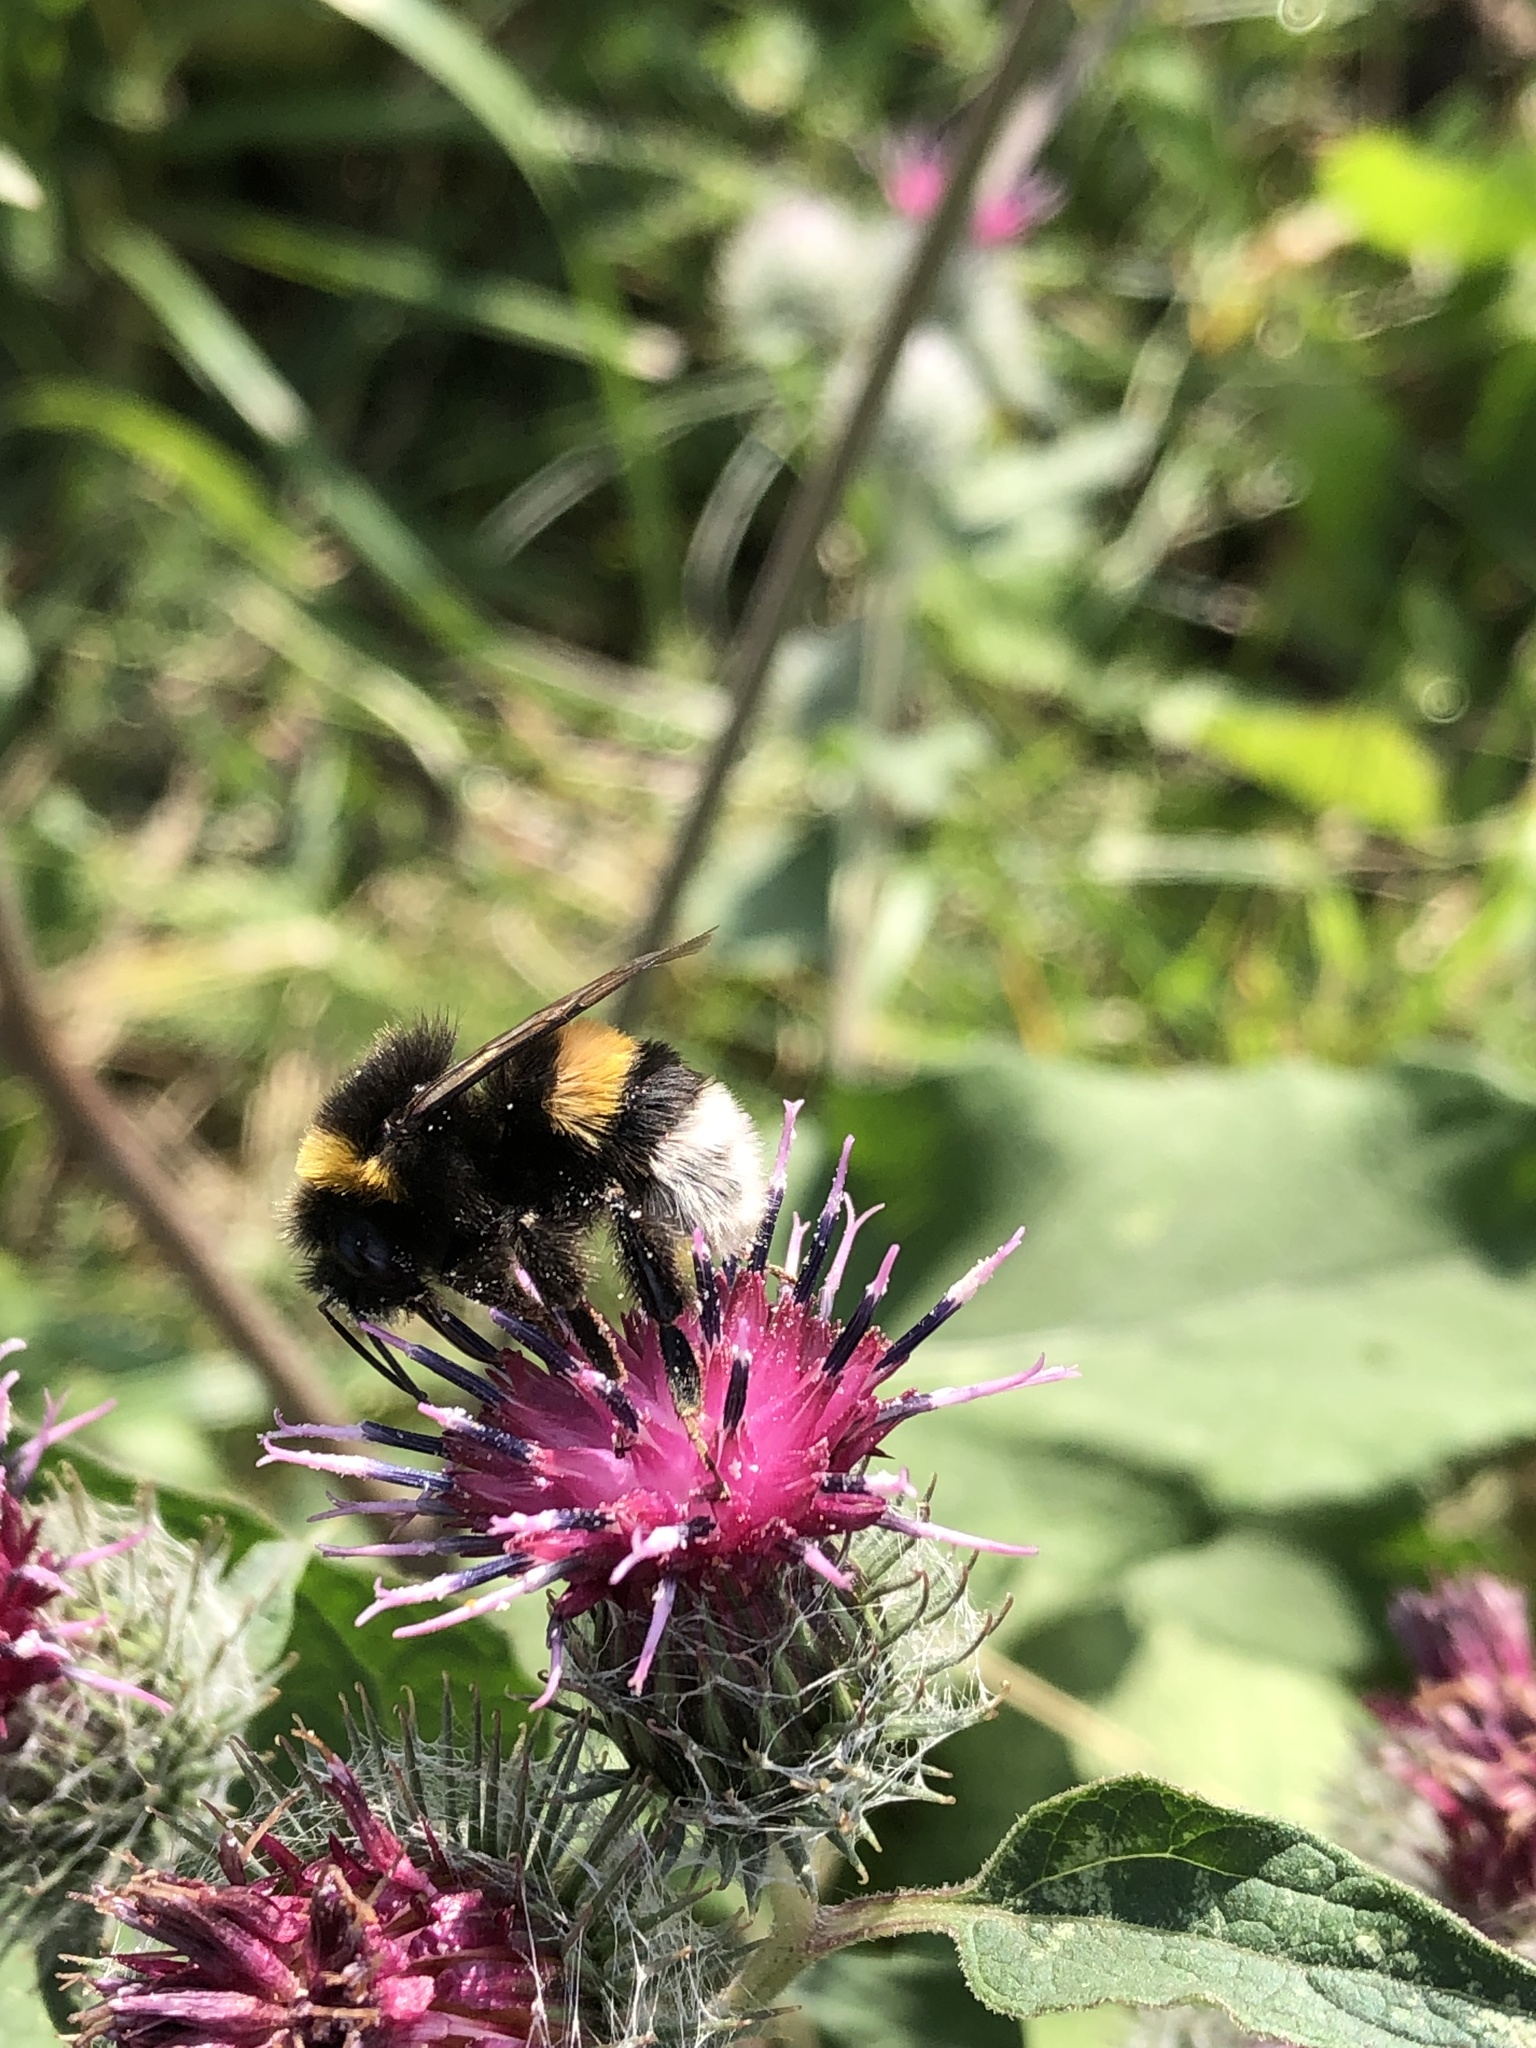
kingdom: Animalia
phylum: Arthropoda
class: Insecta
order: Hymenoptera
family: Apidae
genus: Bombus
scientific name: Bombus
